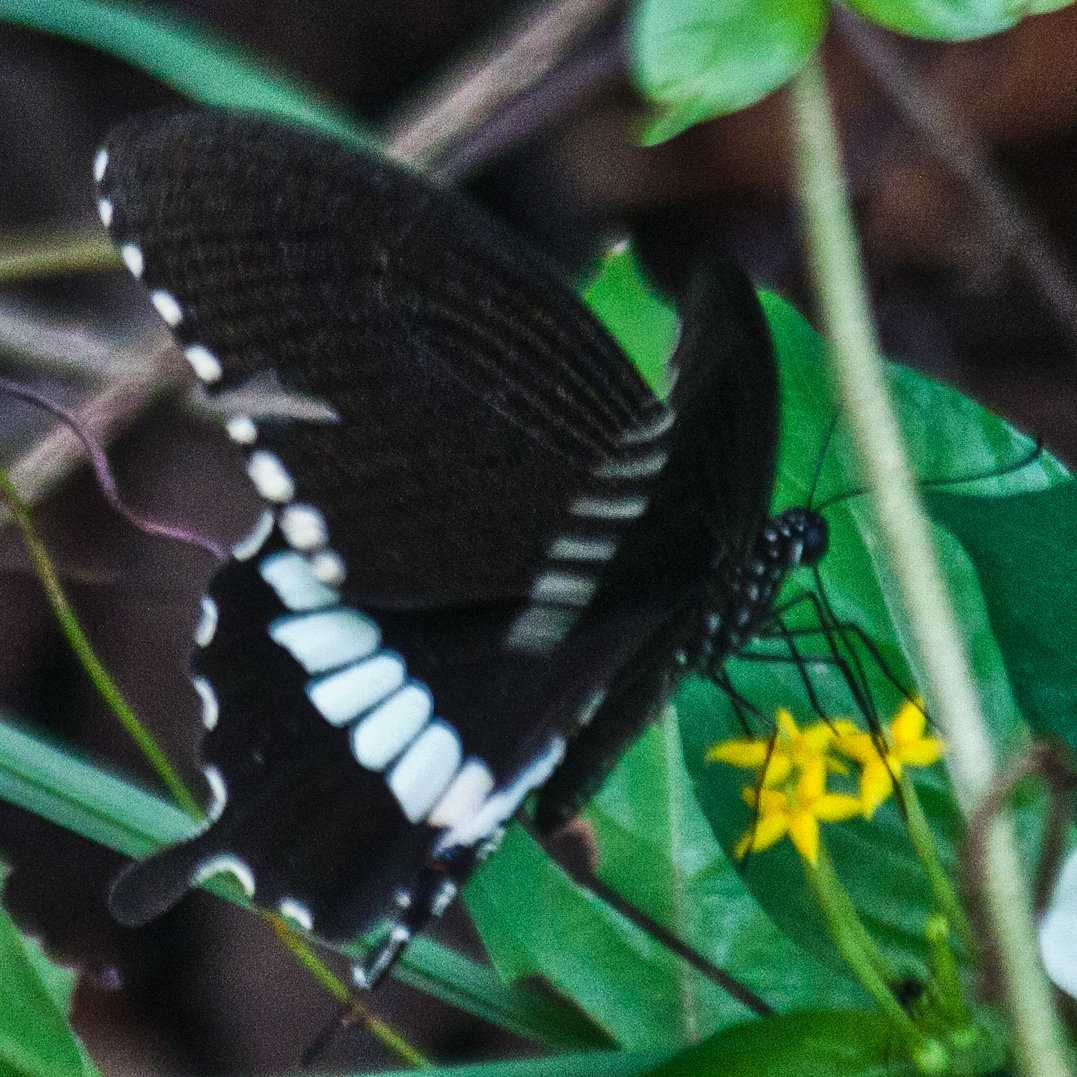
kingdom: Animalia
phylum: Arthropoda
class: Insecta
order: Lepidoptera
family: Papilionidae
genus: Papilio
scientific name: Papilio polytes
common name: Common mormon
